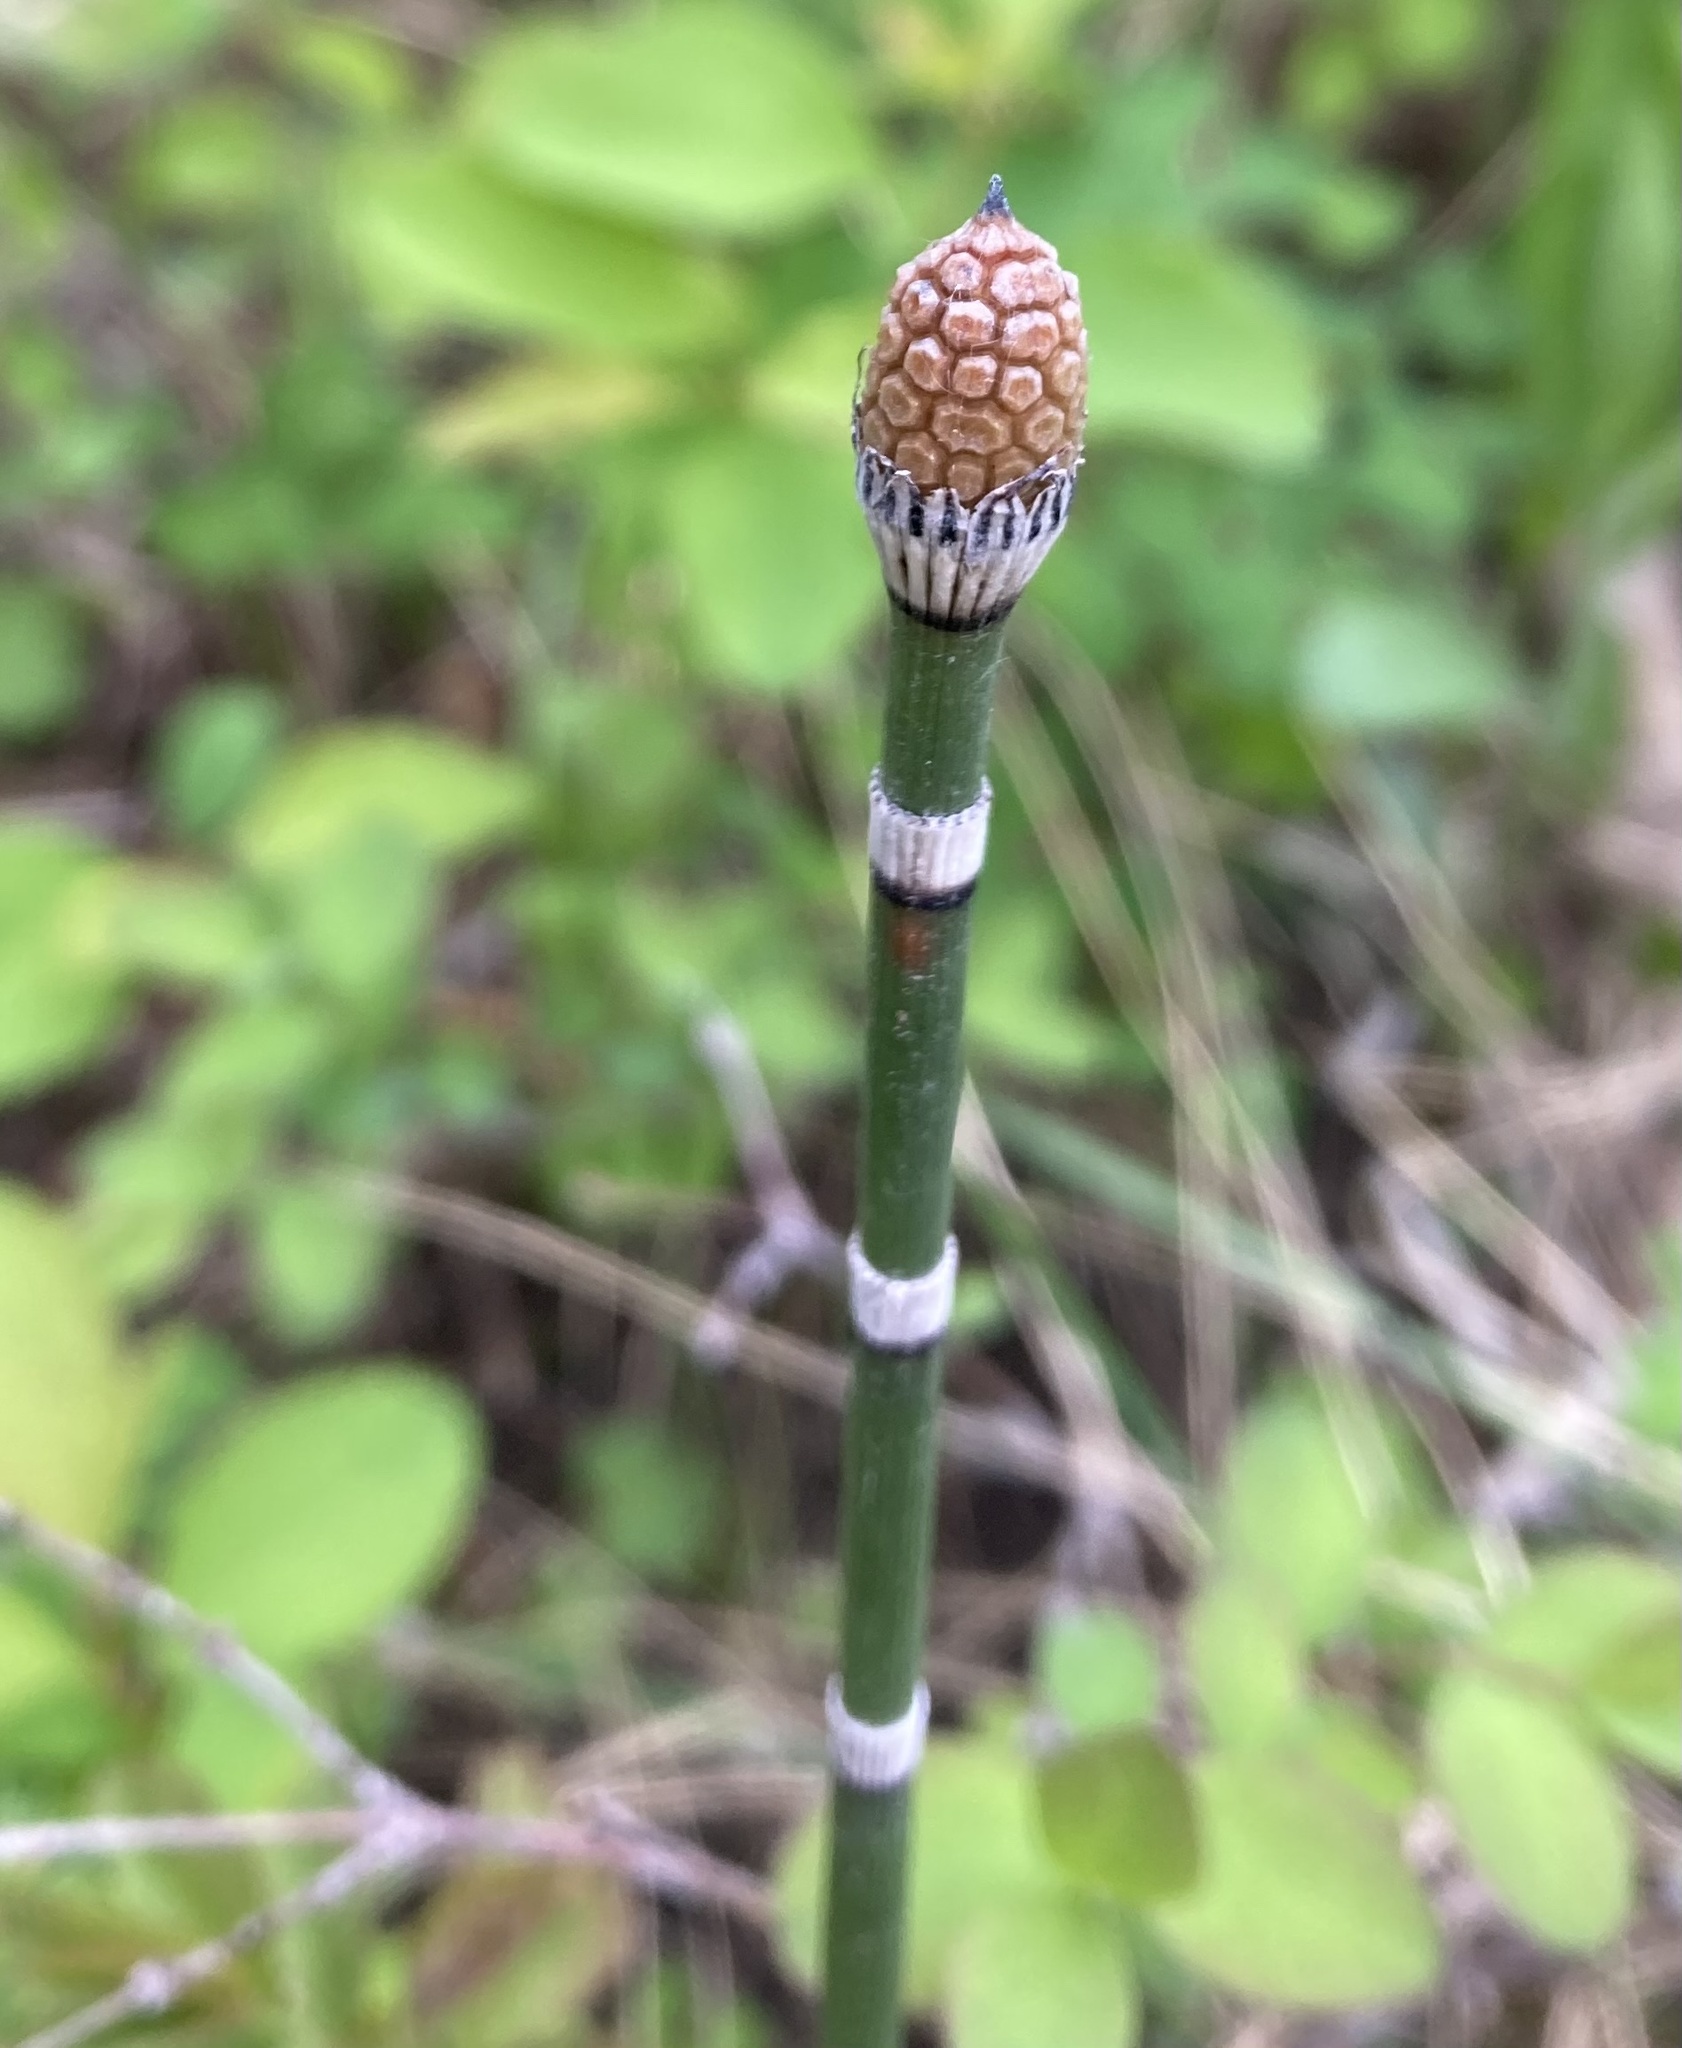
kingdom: Plantae
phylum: Tracheophyta
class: Polypodiopsida
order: Equisetales
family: Equisetaceae
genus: Equisetum
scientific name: Equisetum praealtum
